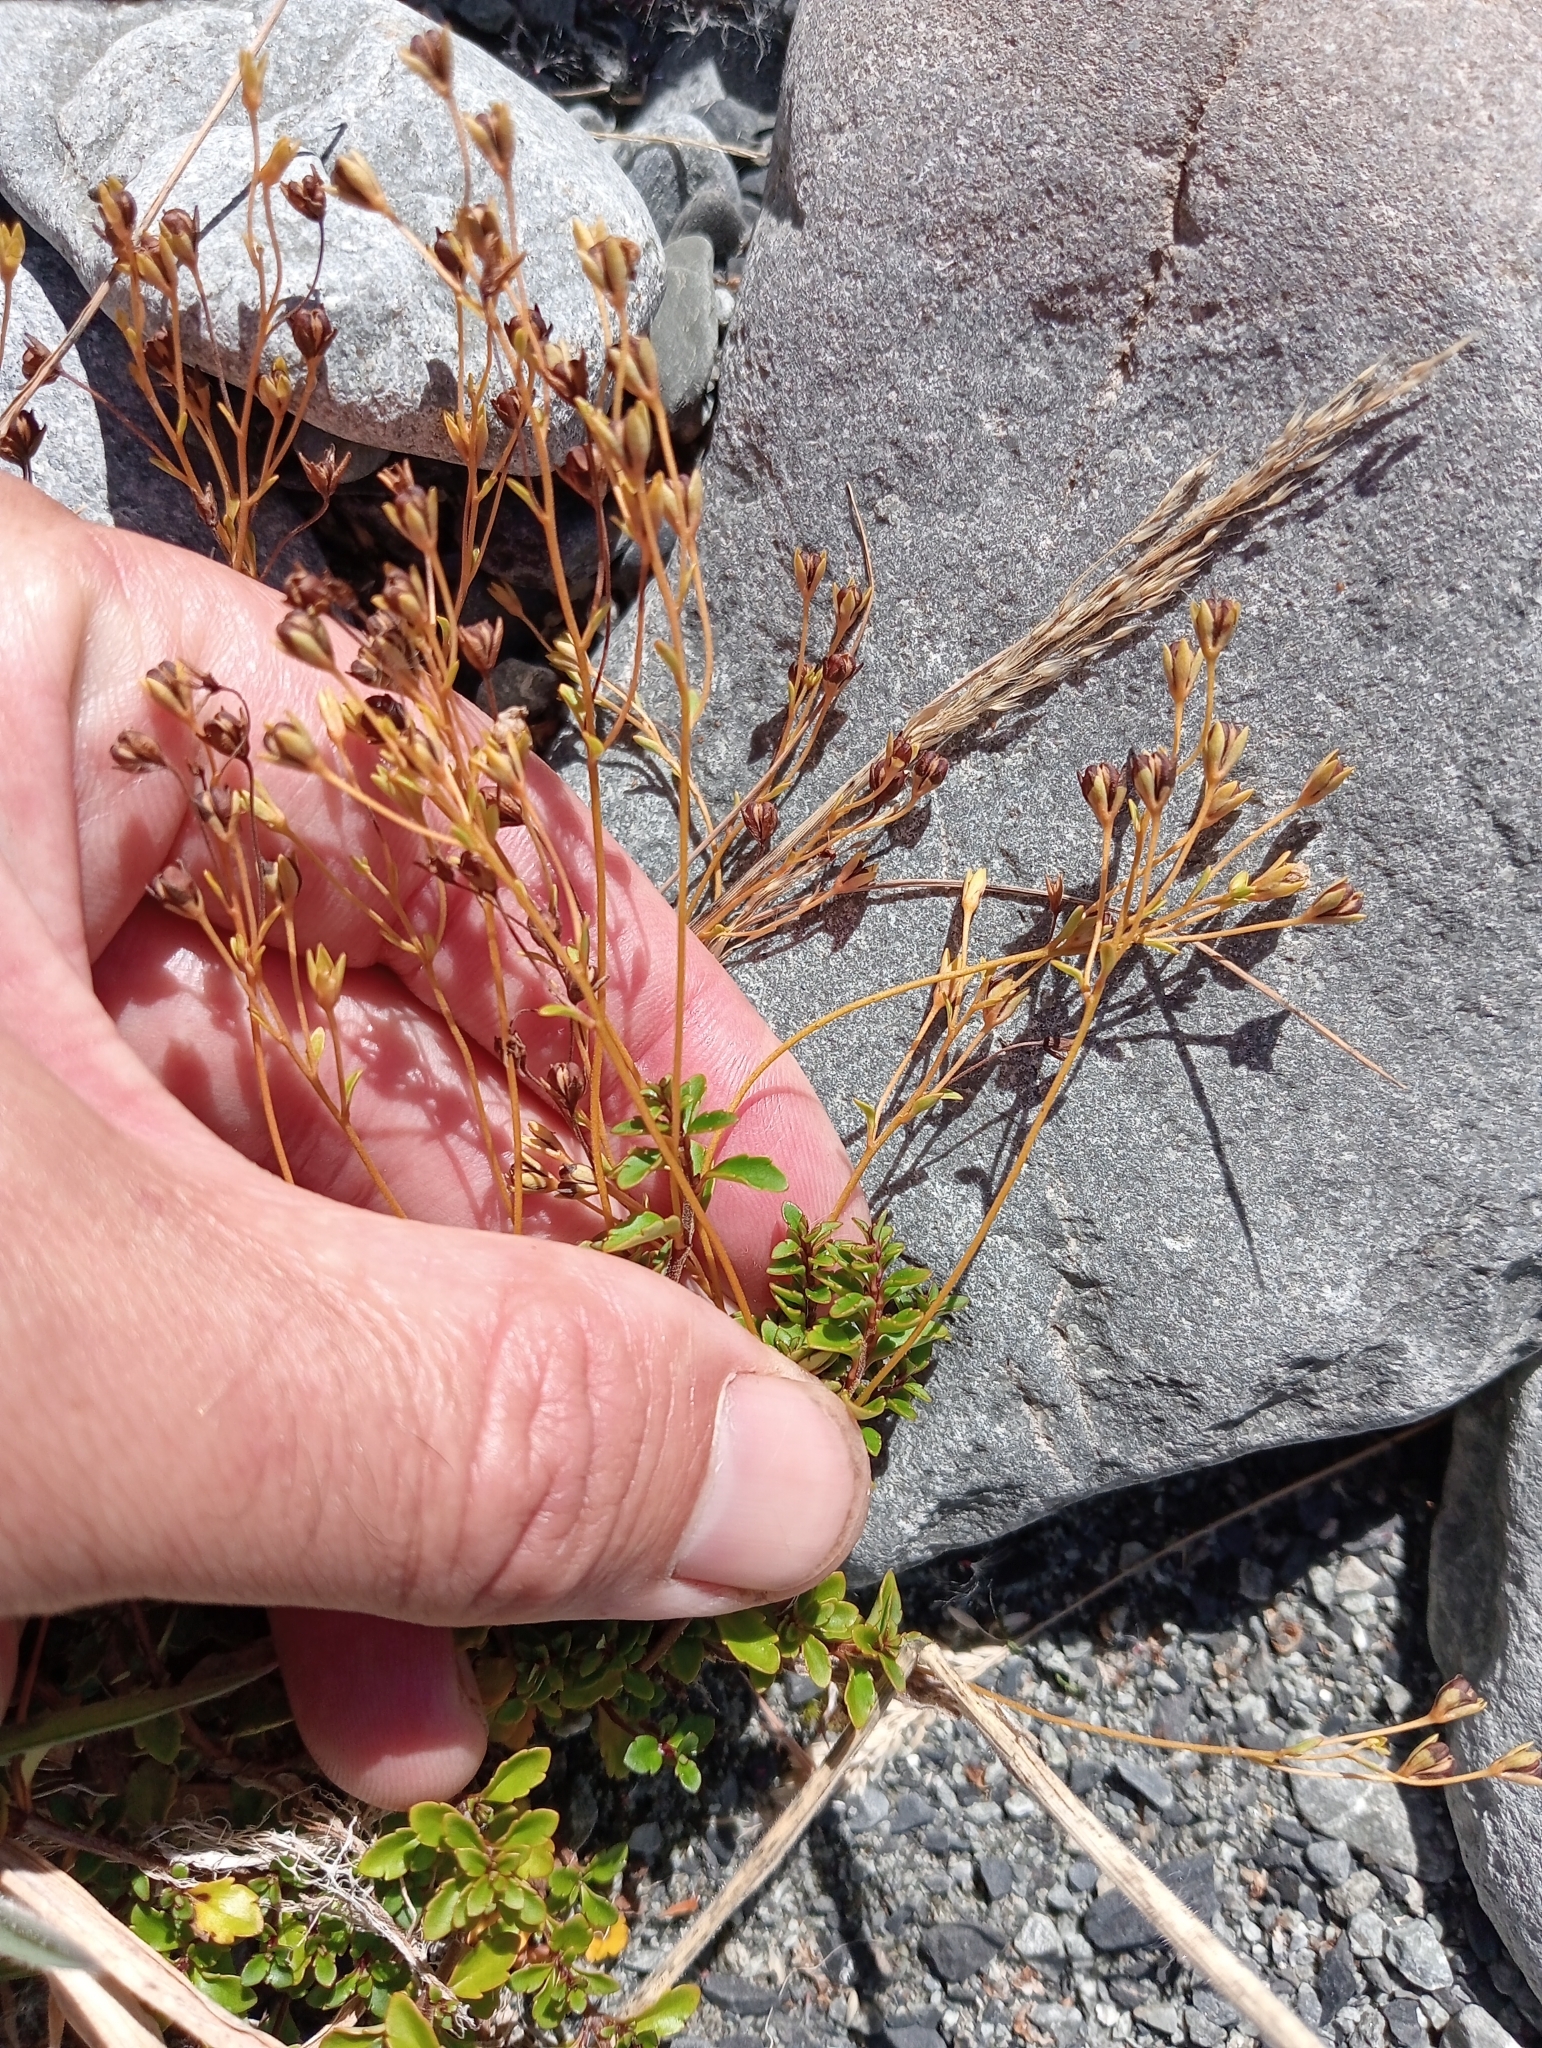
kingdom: Plantae
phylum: Tracheophyta
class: Magnoliopsida
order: Lamiales
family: Plantaginaceae
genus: Veronica
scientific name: Veronica lyallii
